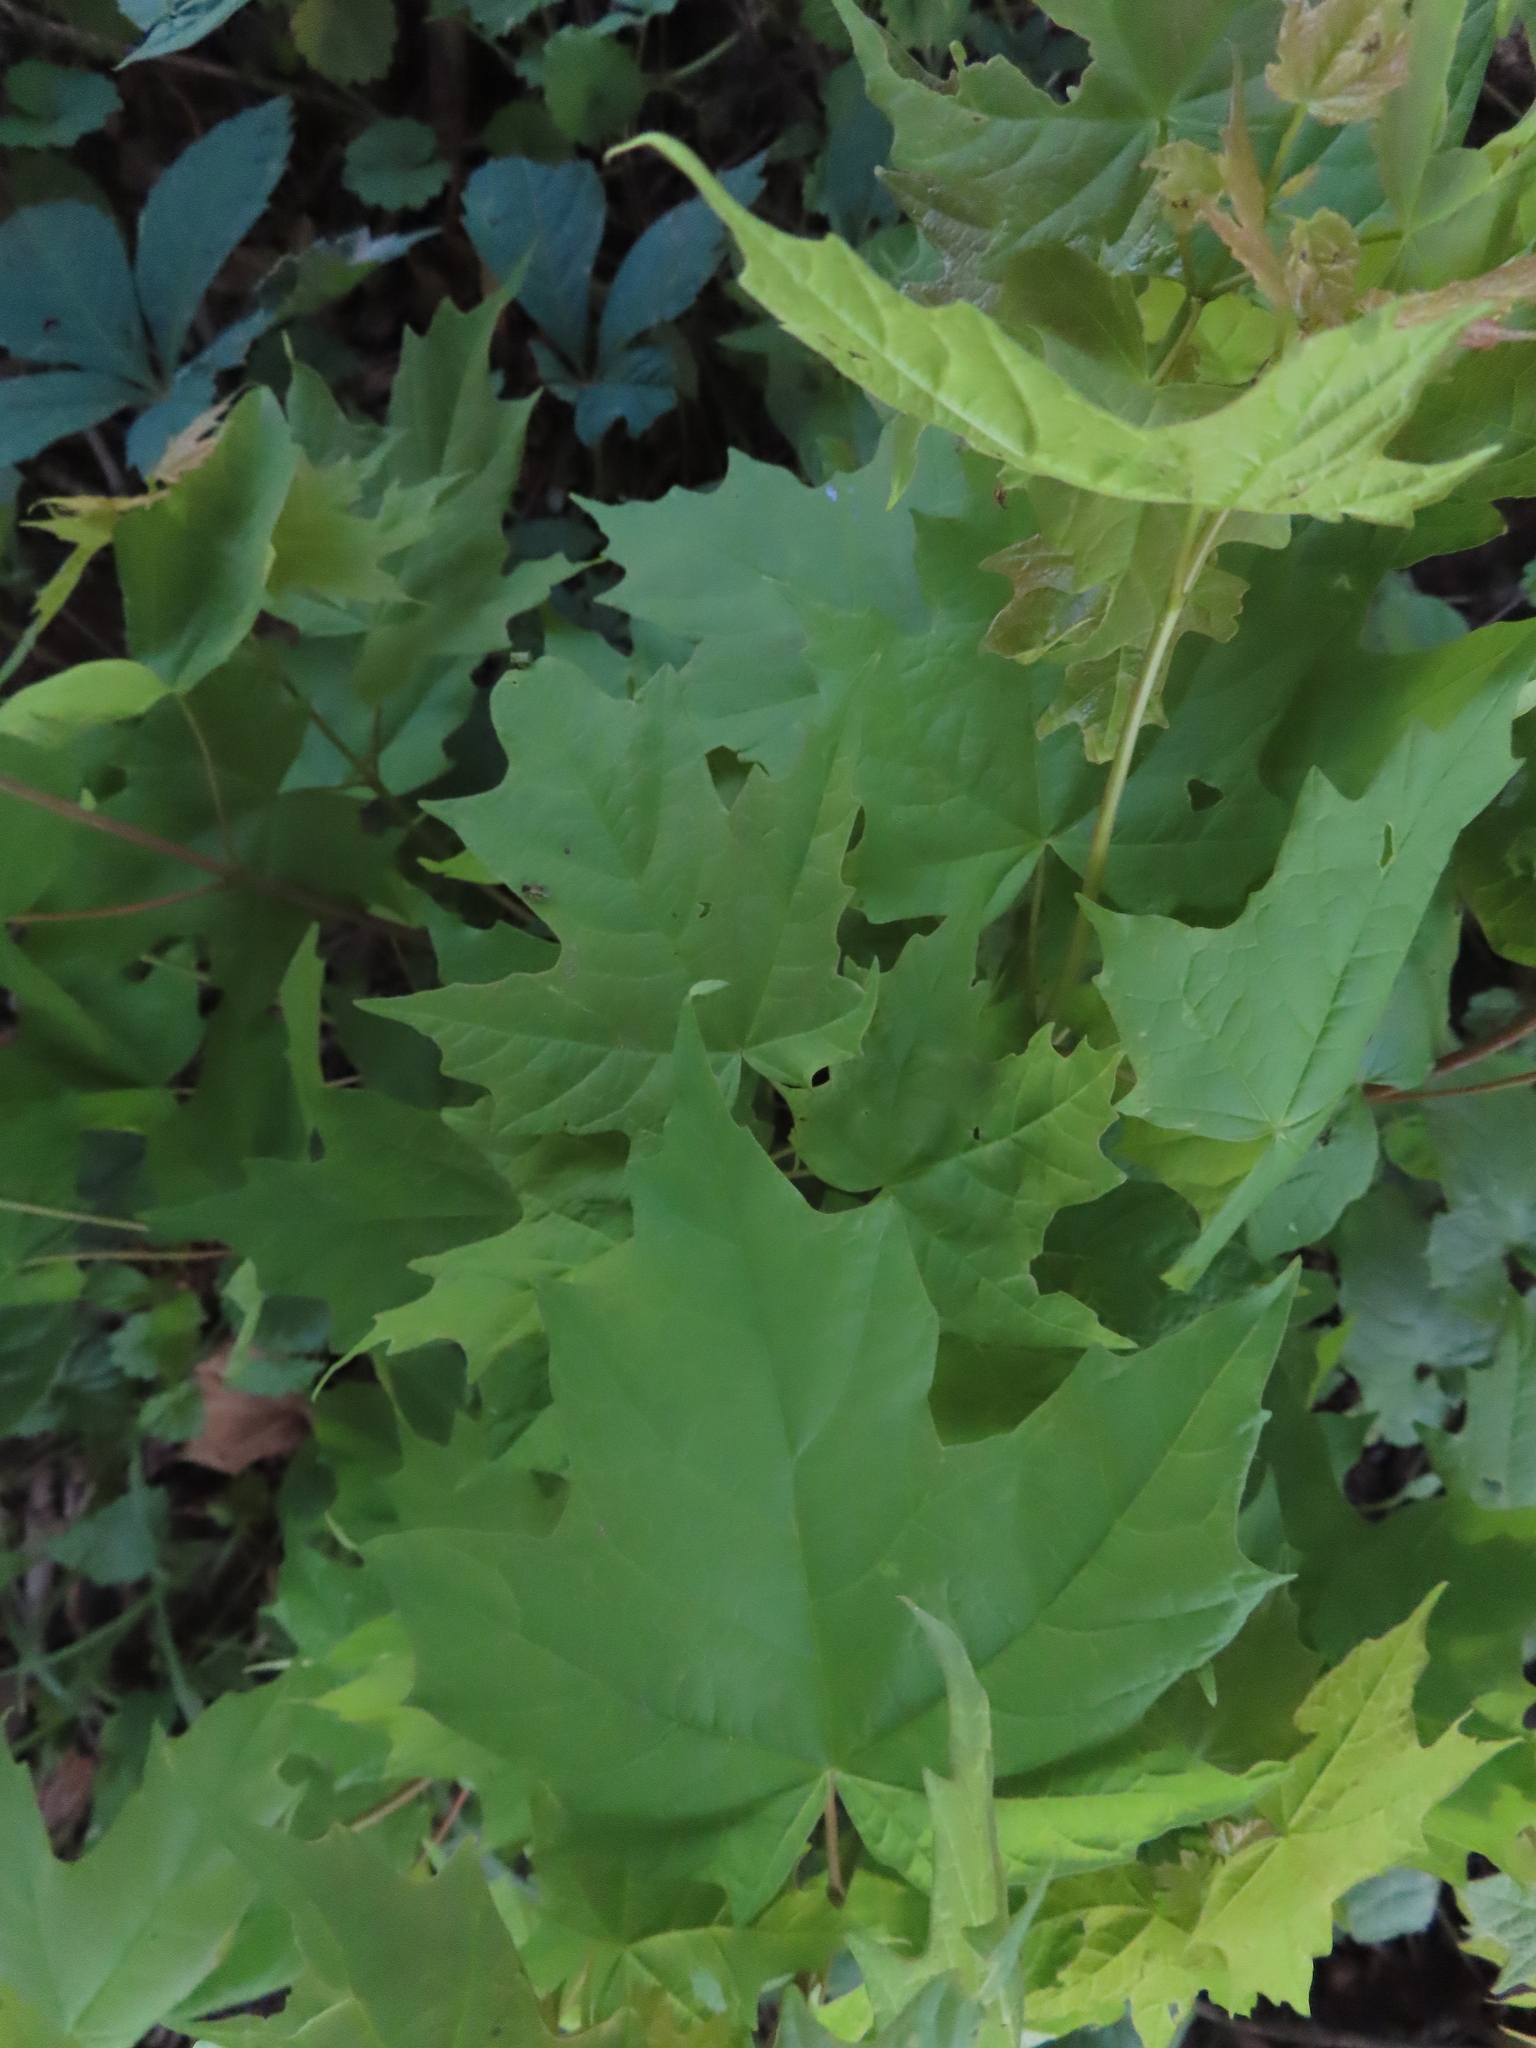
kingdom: Plantae
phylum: Tracheophyta
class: Magnoliopsida
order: Sapindales
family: Sapindaceae
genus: Acer
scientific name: Acer saccharum
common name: Sugar maple
